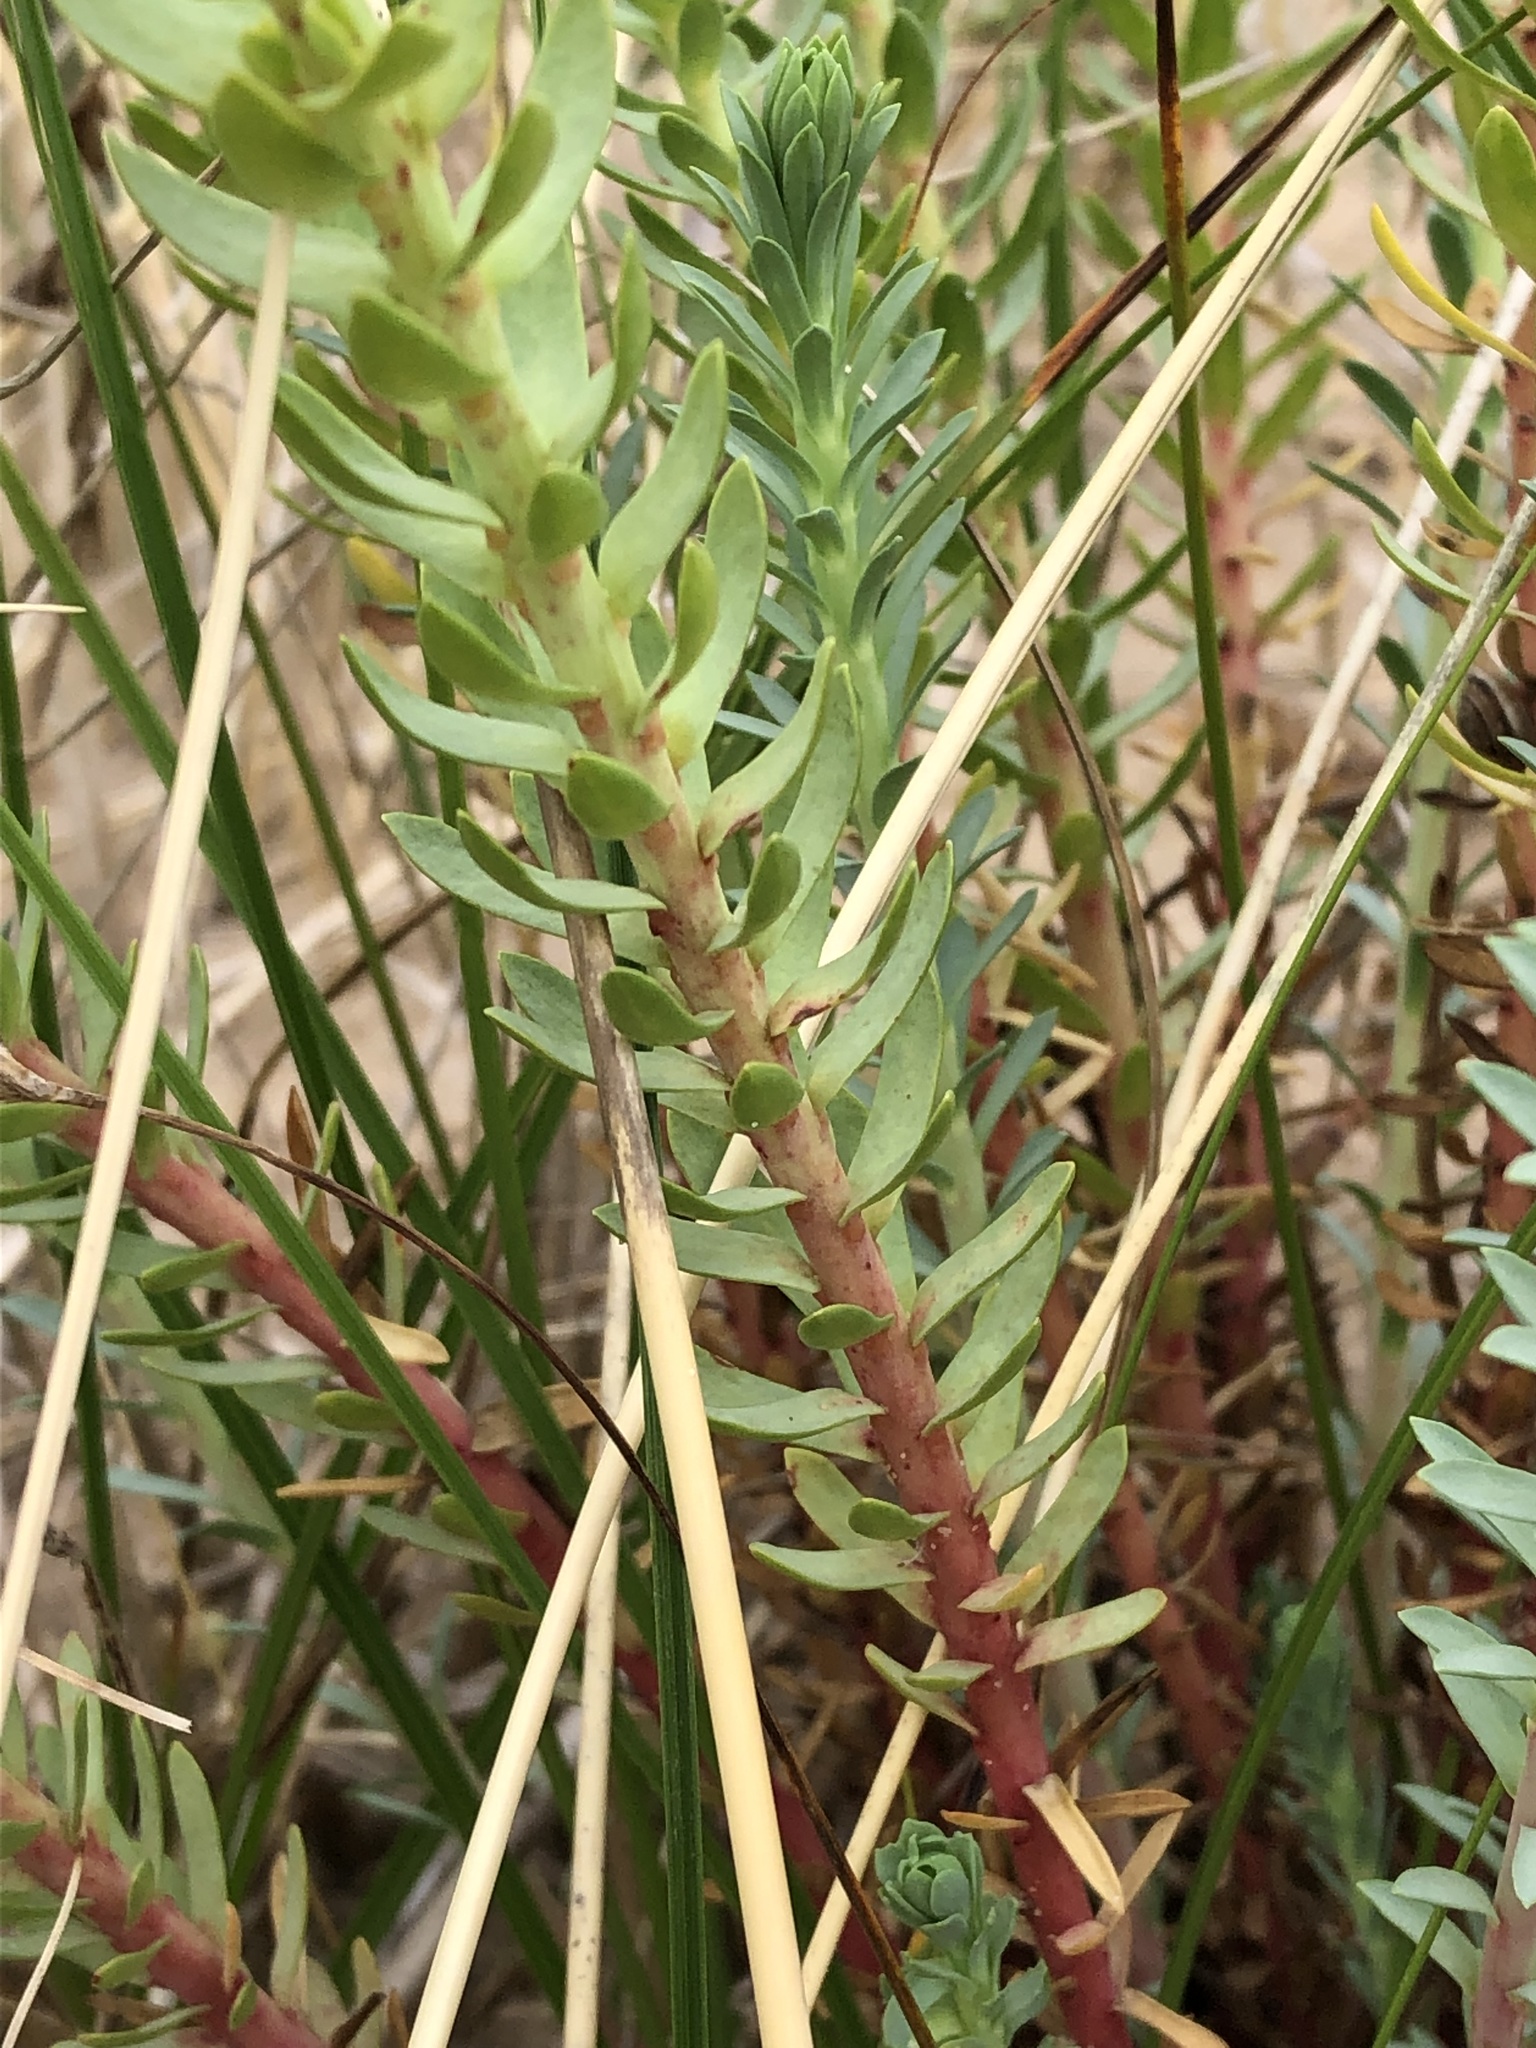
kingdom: Plantae
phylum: Tracheophyta
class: Magnoliopsida
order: Malpighiales
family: Euphorbiaceae
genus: Euphorbia
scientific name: Euphorbia paralias
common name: Sea spurge
